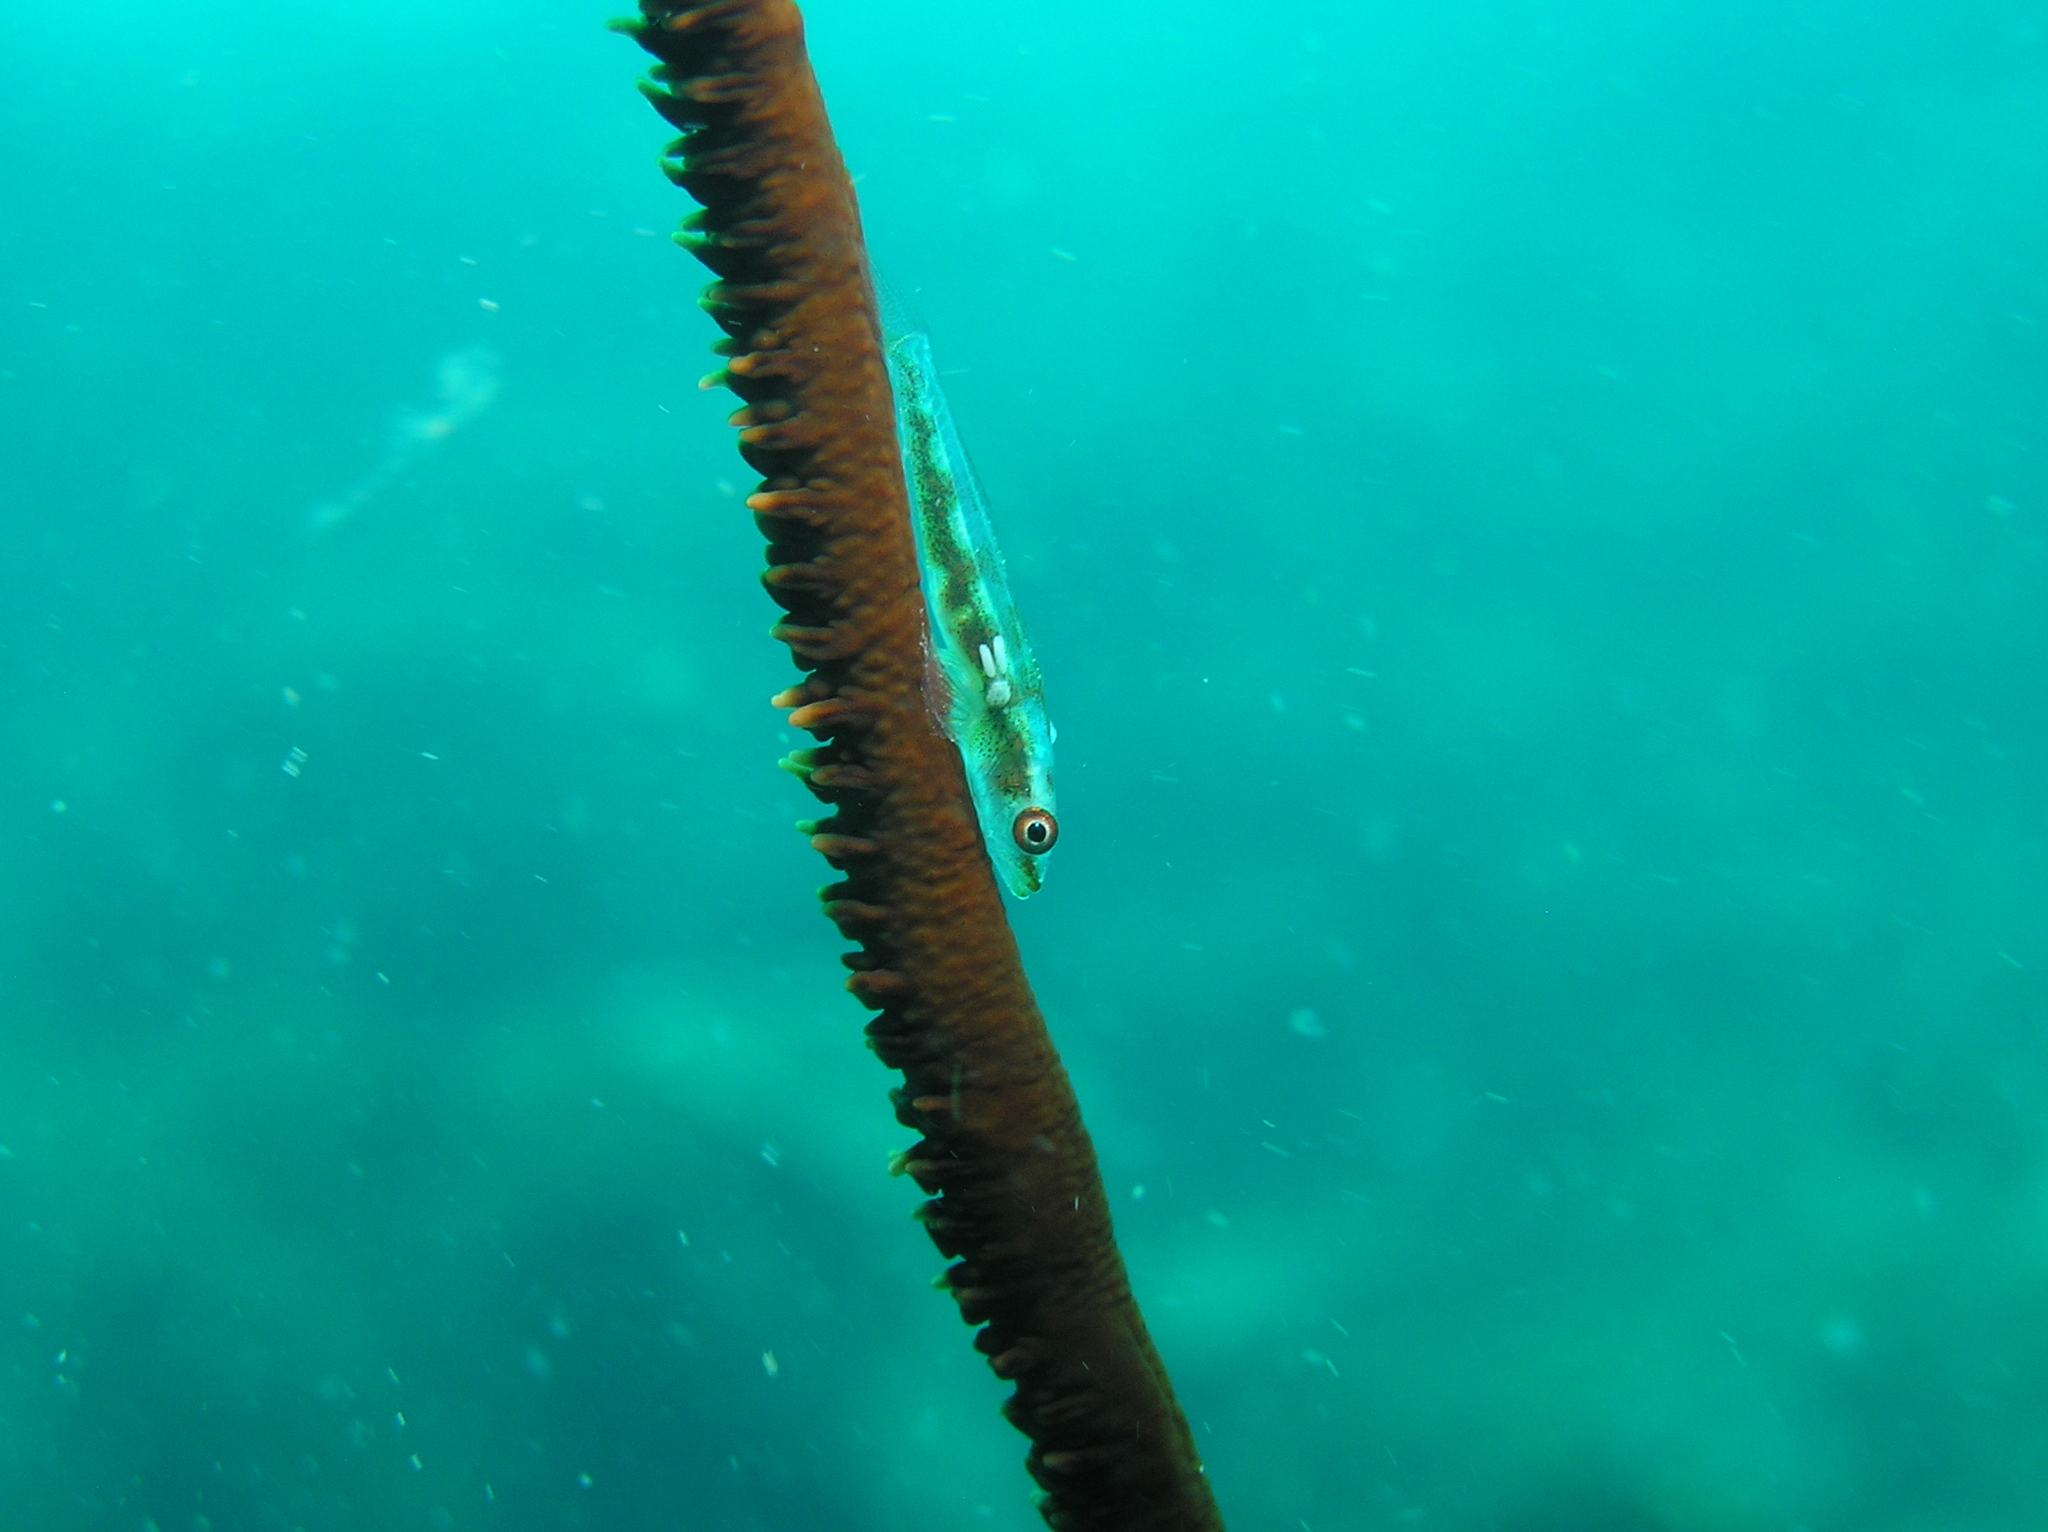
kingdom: Animalia
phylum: Chordata
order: Perciformes
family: Gobiidae
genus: Bryaninops
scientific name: Bryaninops yongei
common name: Whip coral goby
